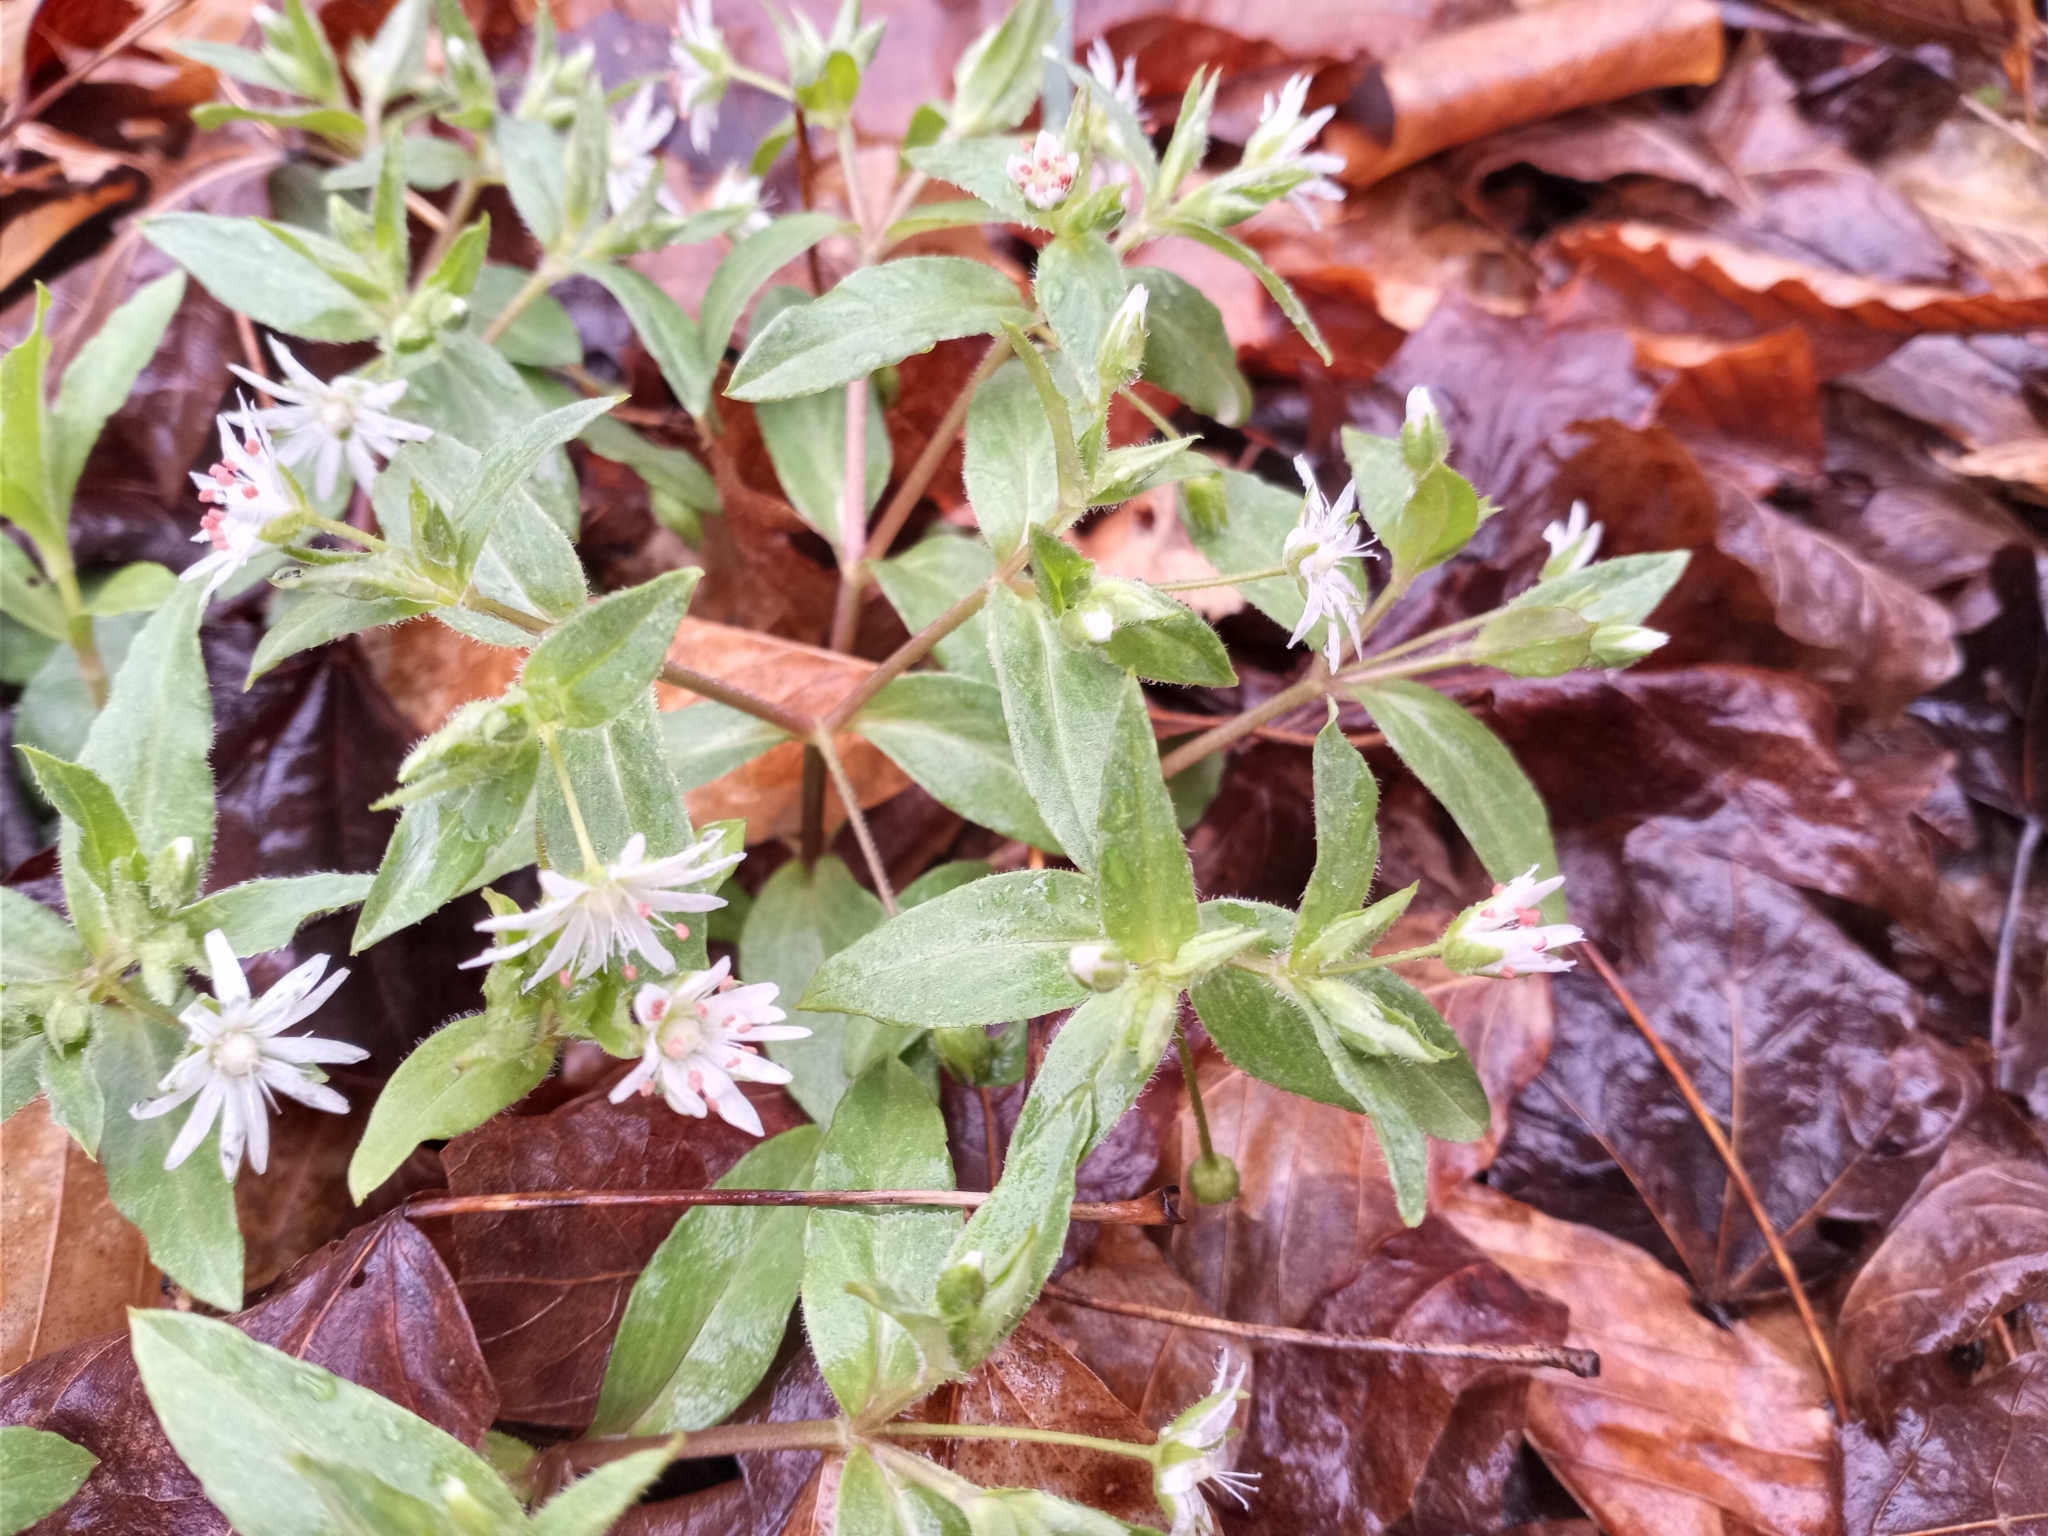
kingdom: Plantae
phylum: Tracheophyta
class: Magnoliopsida
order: Caryophyllales
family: Caryophyllaceae
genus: Stellaria
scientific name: Stellaria pubera
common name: Star chickweed
